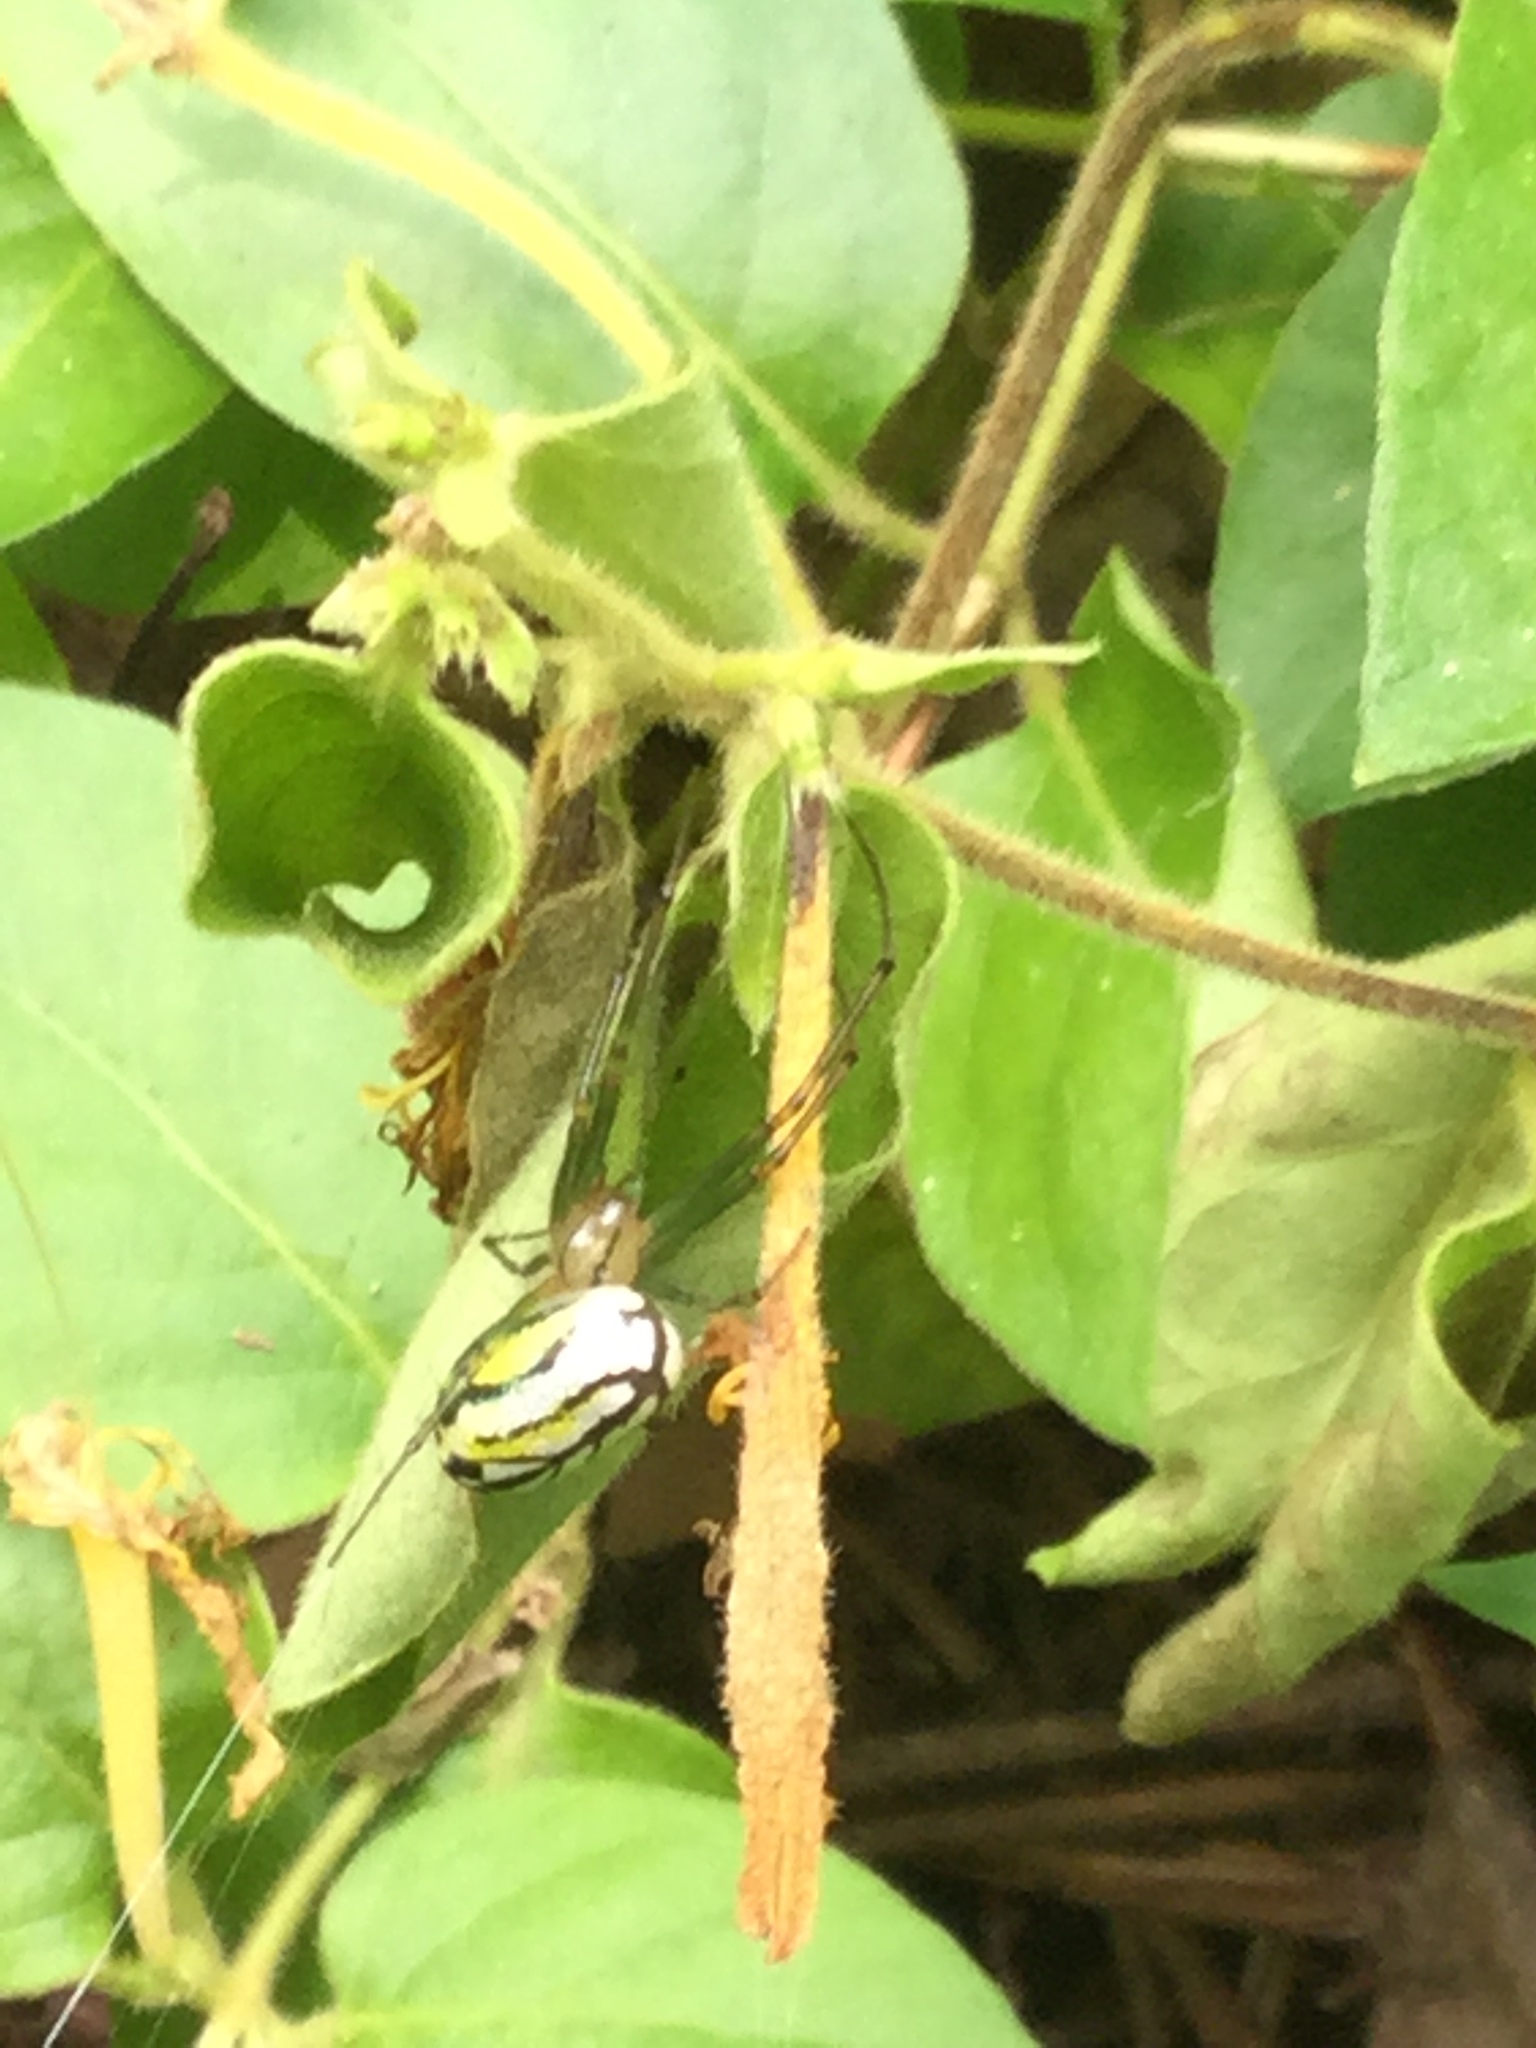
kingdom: Animalia
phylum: Arthropoda
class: Arachnida
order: Araneae
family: Tetragnathidae
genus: Leucauge
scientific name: Leucauge venusta
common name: Longjawed orb weavers
